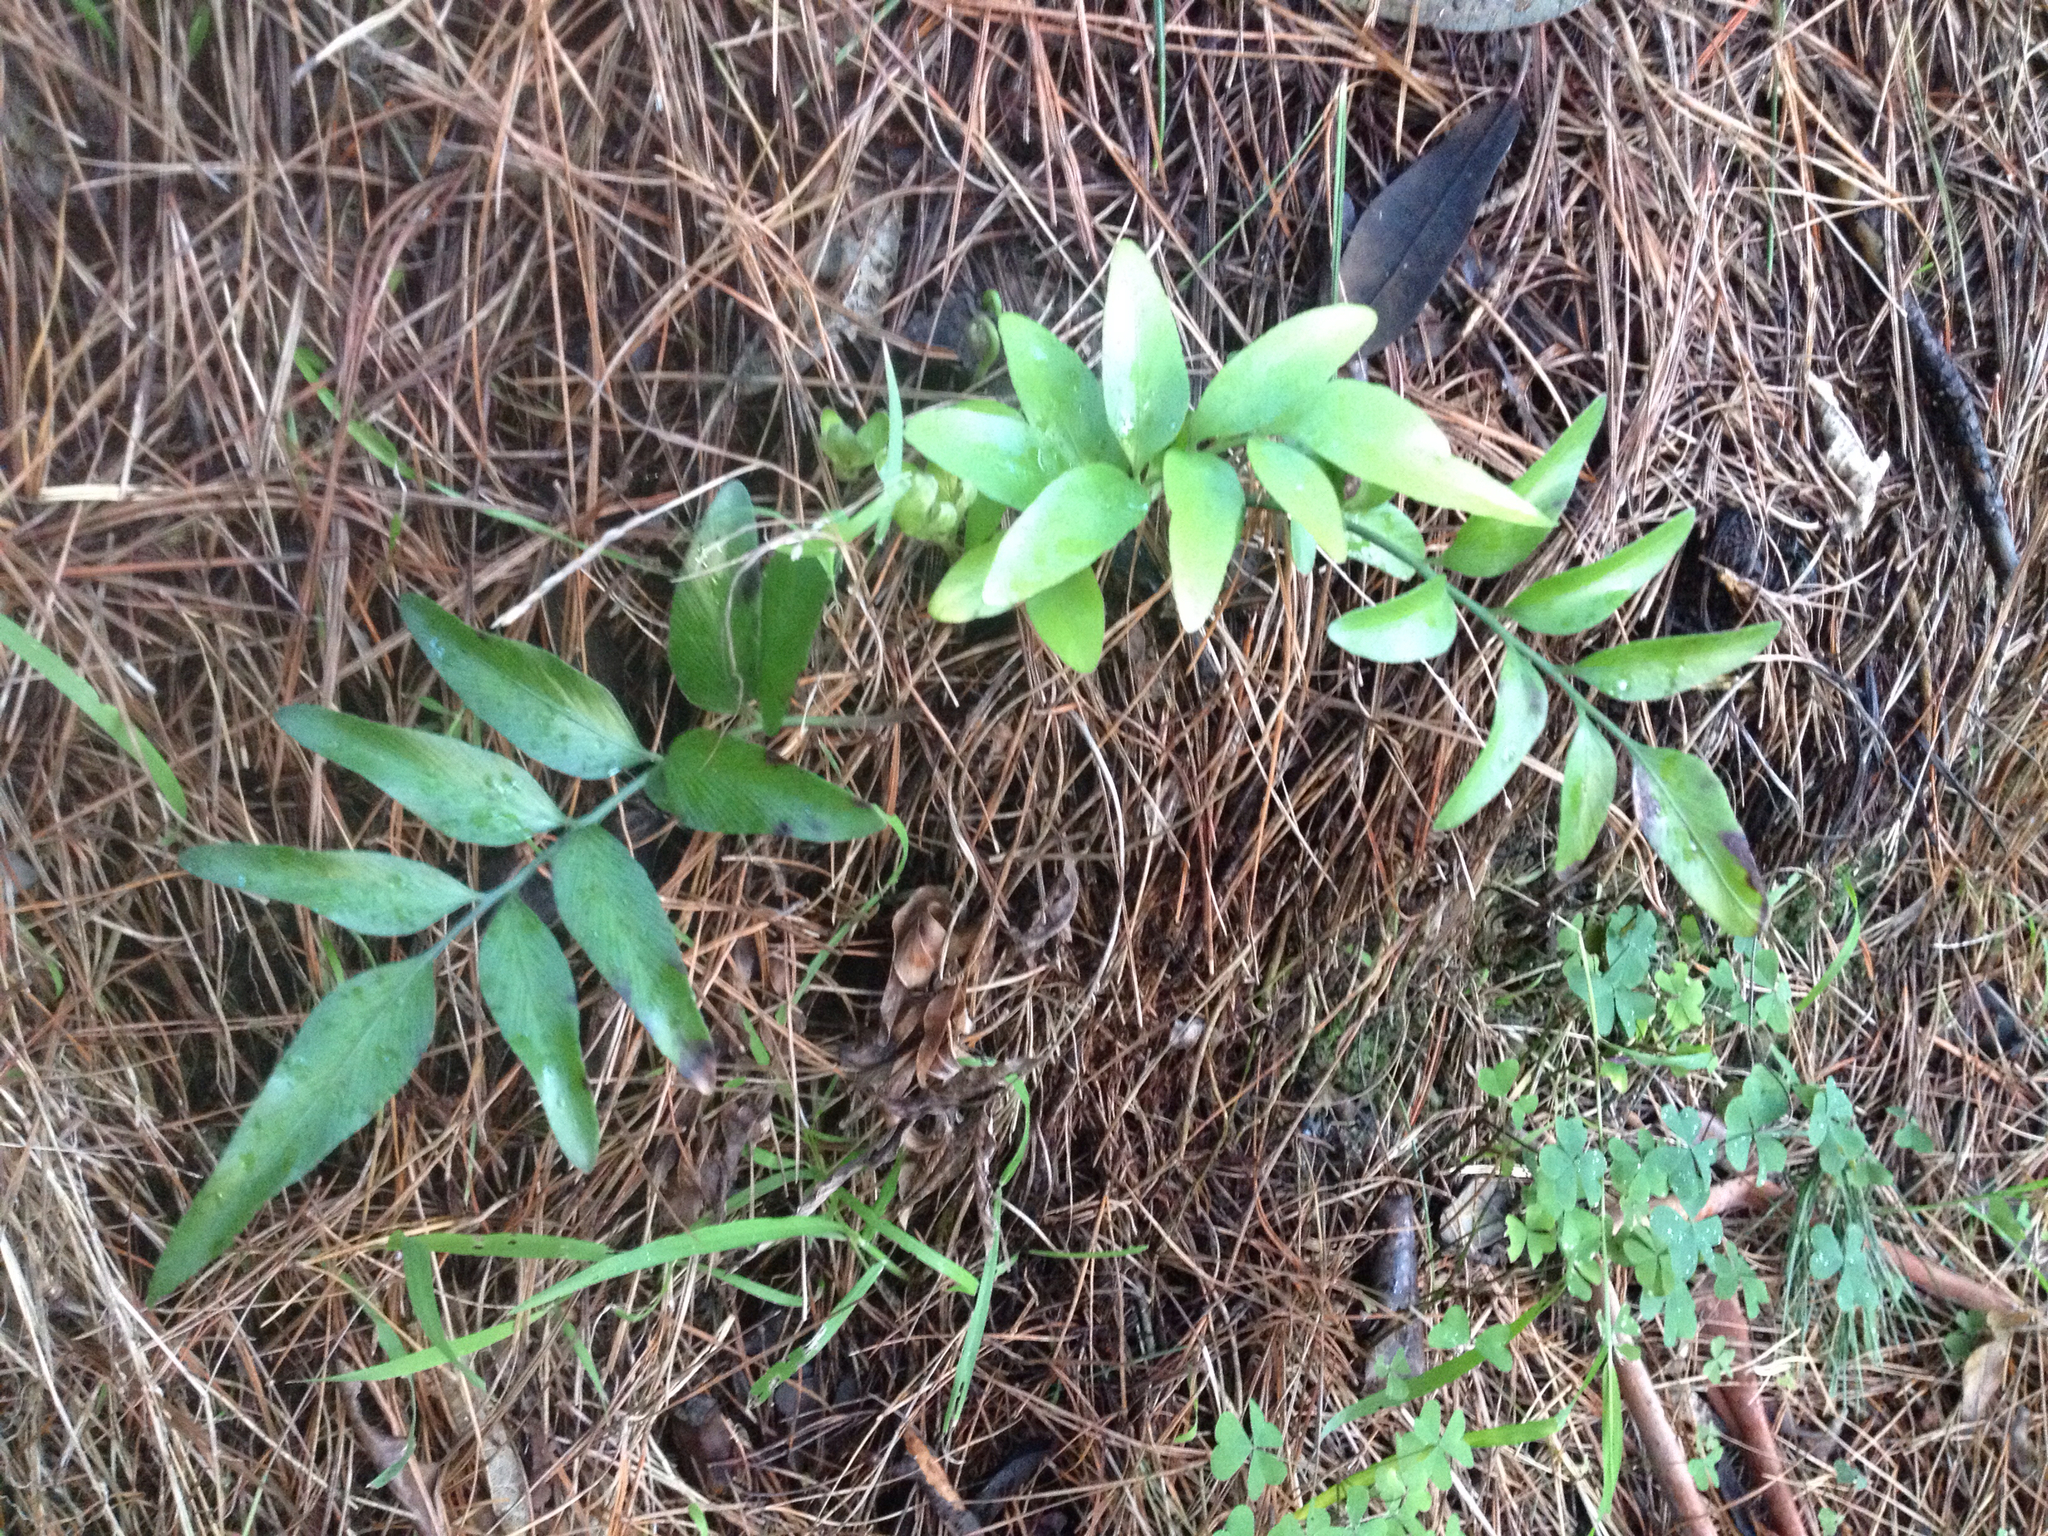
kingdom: Plantae
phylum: Tracheophyta
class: Polypodiopsida
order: Polypodiales
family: Aspleniaceae
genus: Asplenium
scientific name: Asplenium oblongifolium
